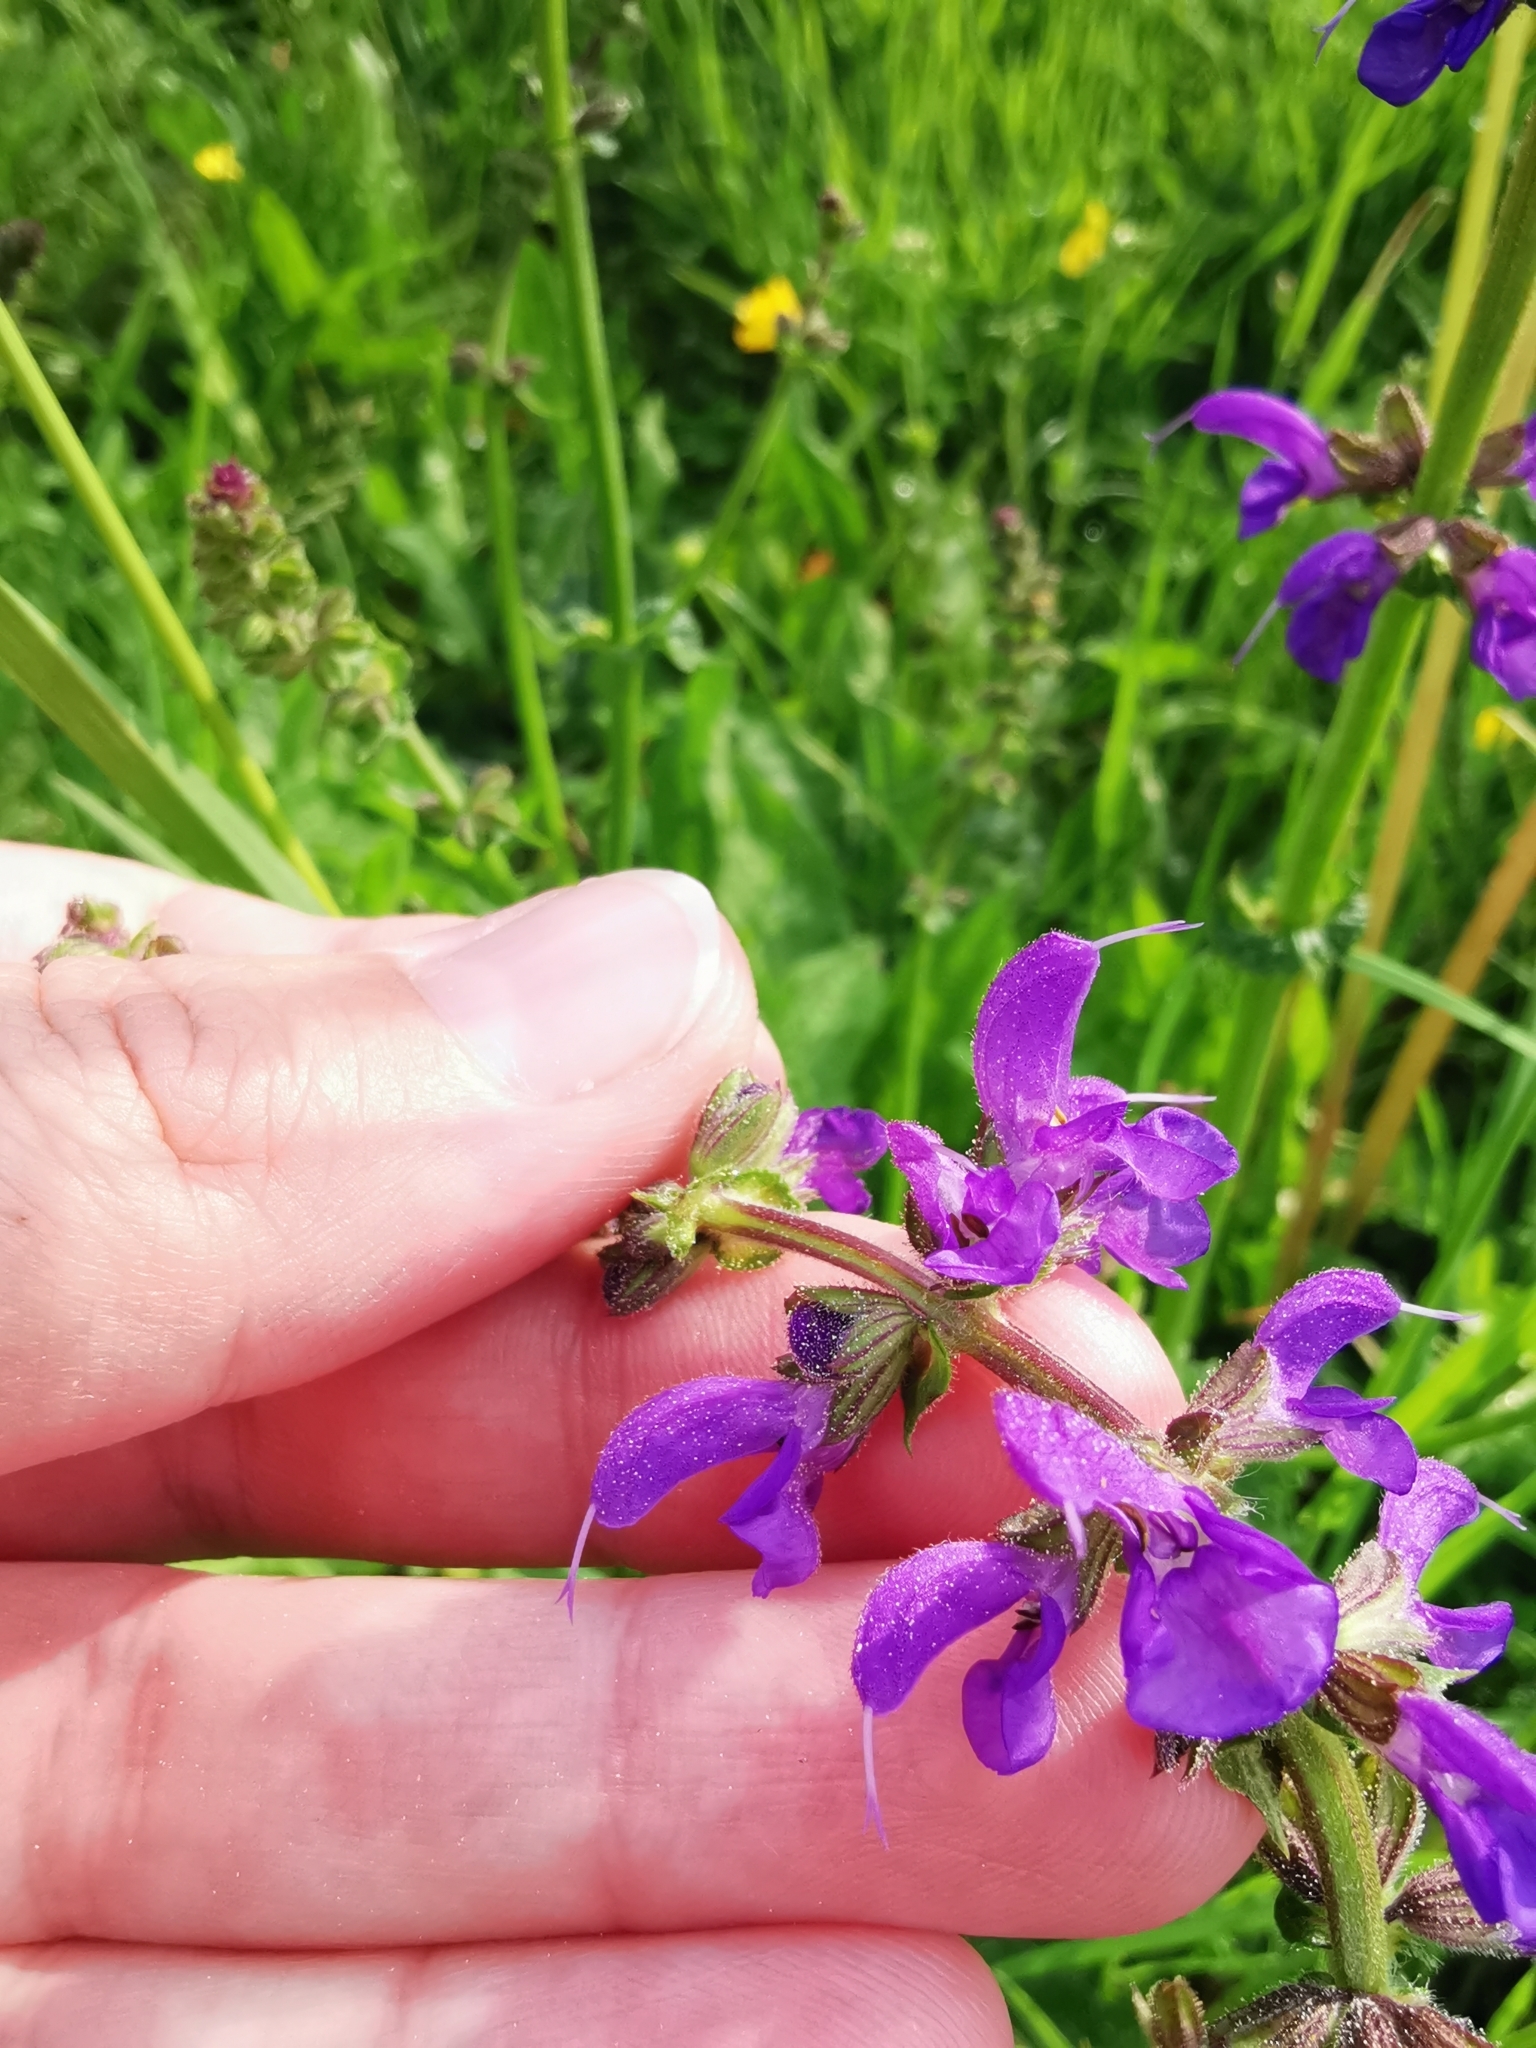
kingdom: Plantae
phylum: Tracheophyta
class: Magnoliopsida
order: Lamiales
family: Lamiaceae
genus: Salvia
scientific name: Salvia pratensis
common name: Meadow sage
